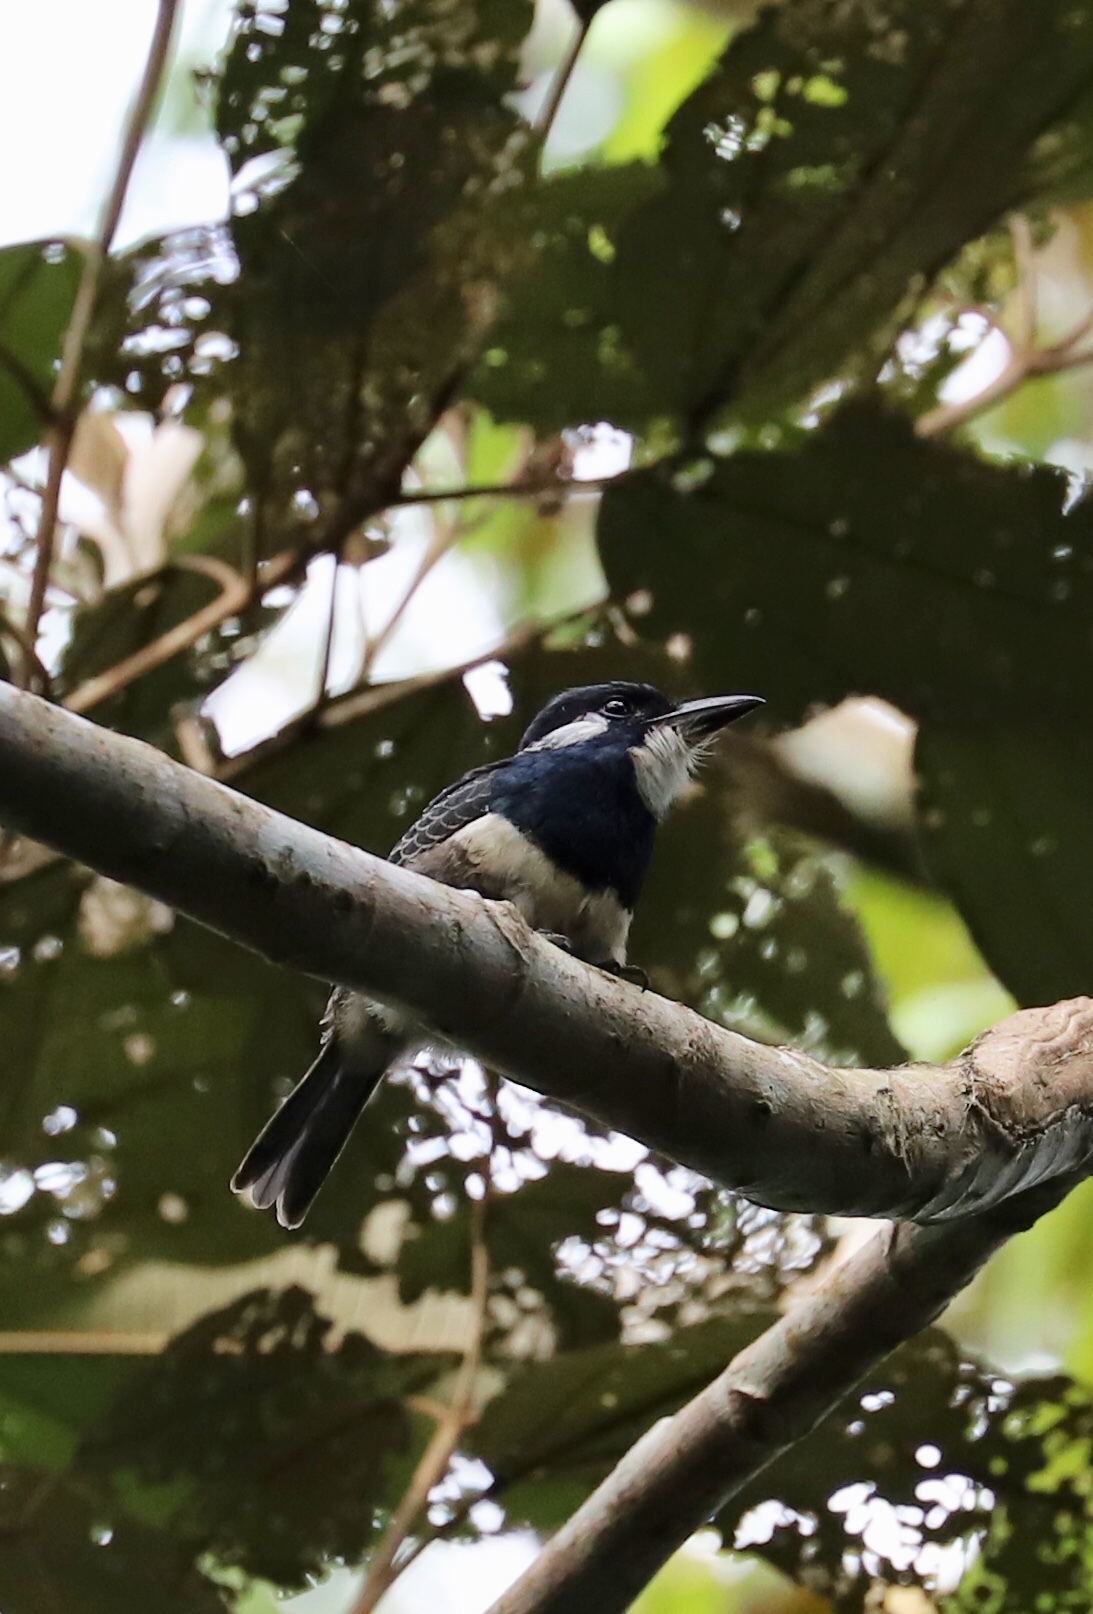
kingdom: Animalia
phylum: Chordata
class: Aves
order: Piciformes
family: Bucconidae
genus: Notharchus
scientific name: Notharchus pectoralis
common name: Black-breasted puffbird
